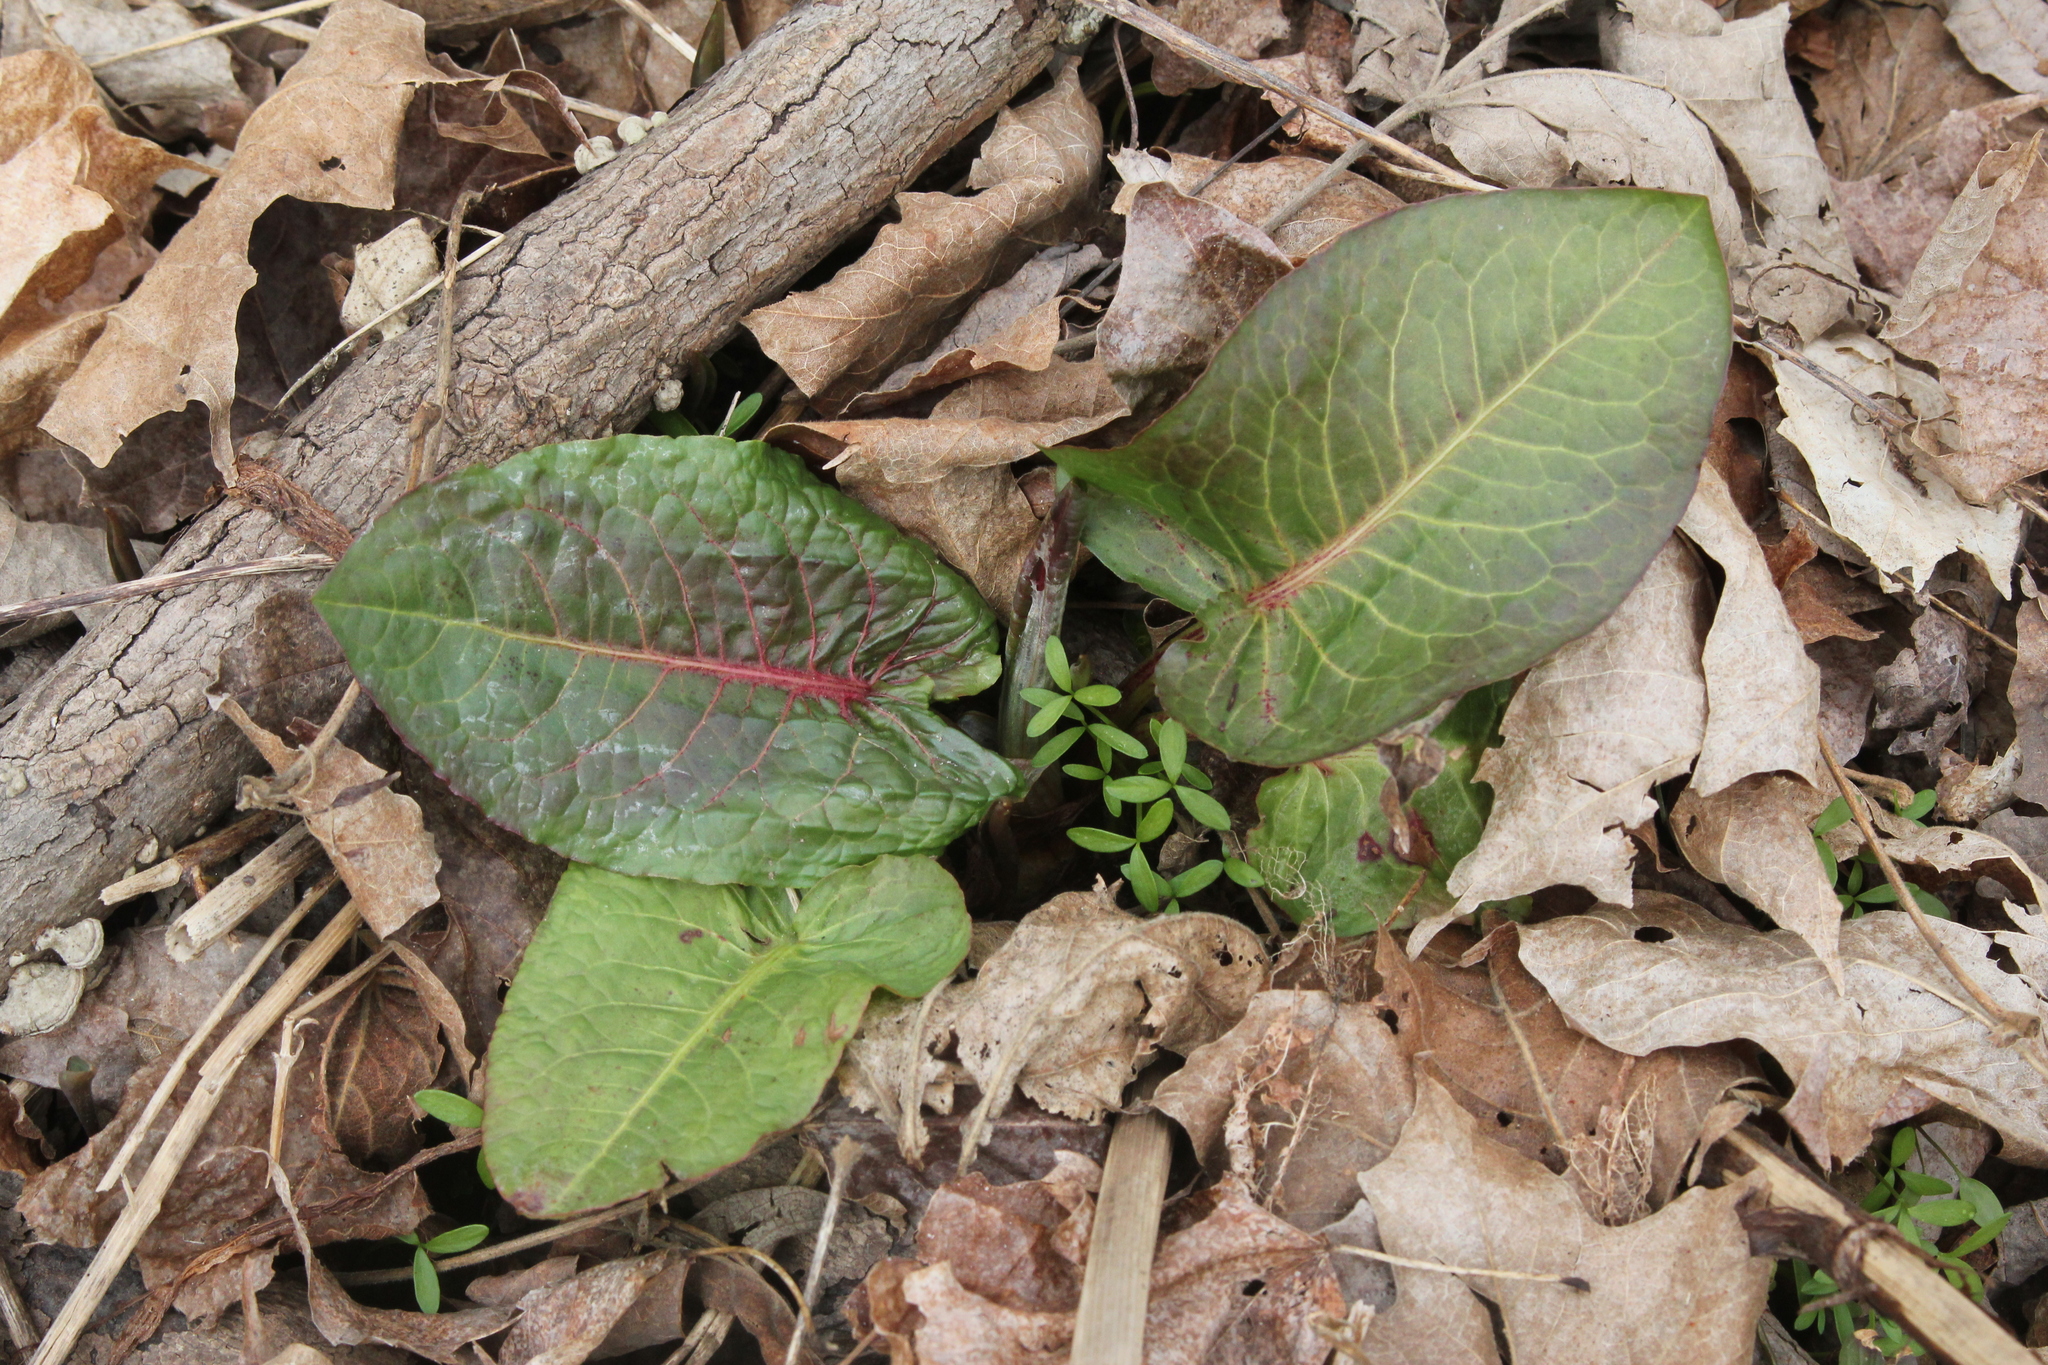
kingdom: Plantae
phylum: Tracheophyta
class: Magnoliopsida
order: Caryophyllales
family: Polygonaceae
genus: Rumex
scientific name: Rumex obtusifolius
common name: Bitter dock
